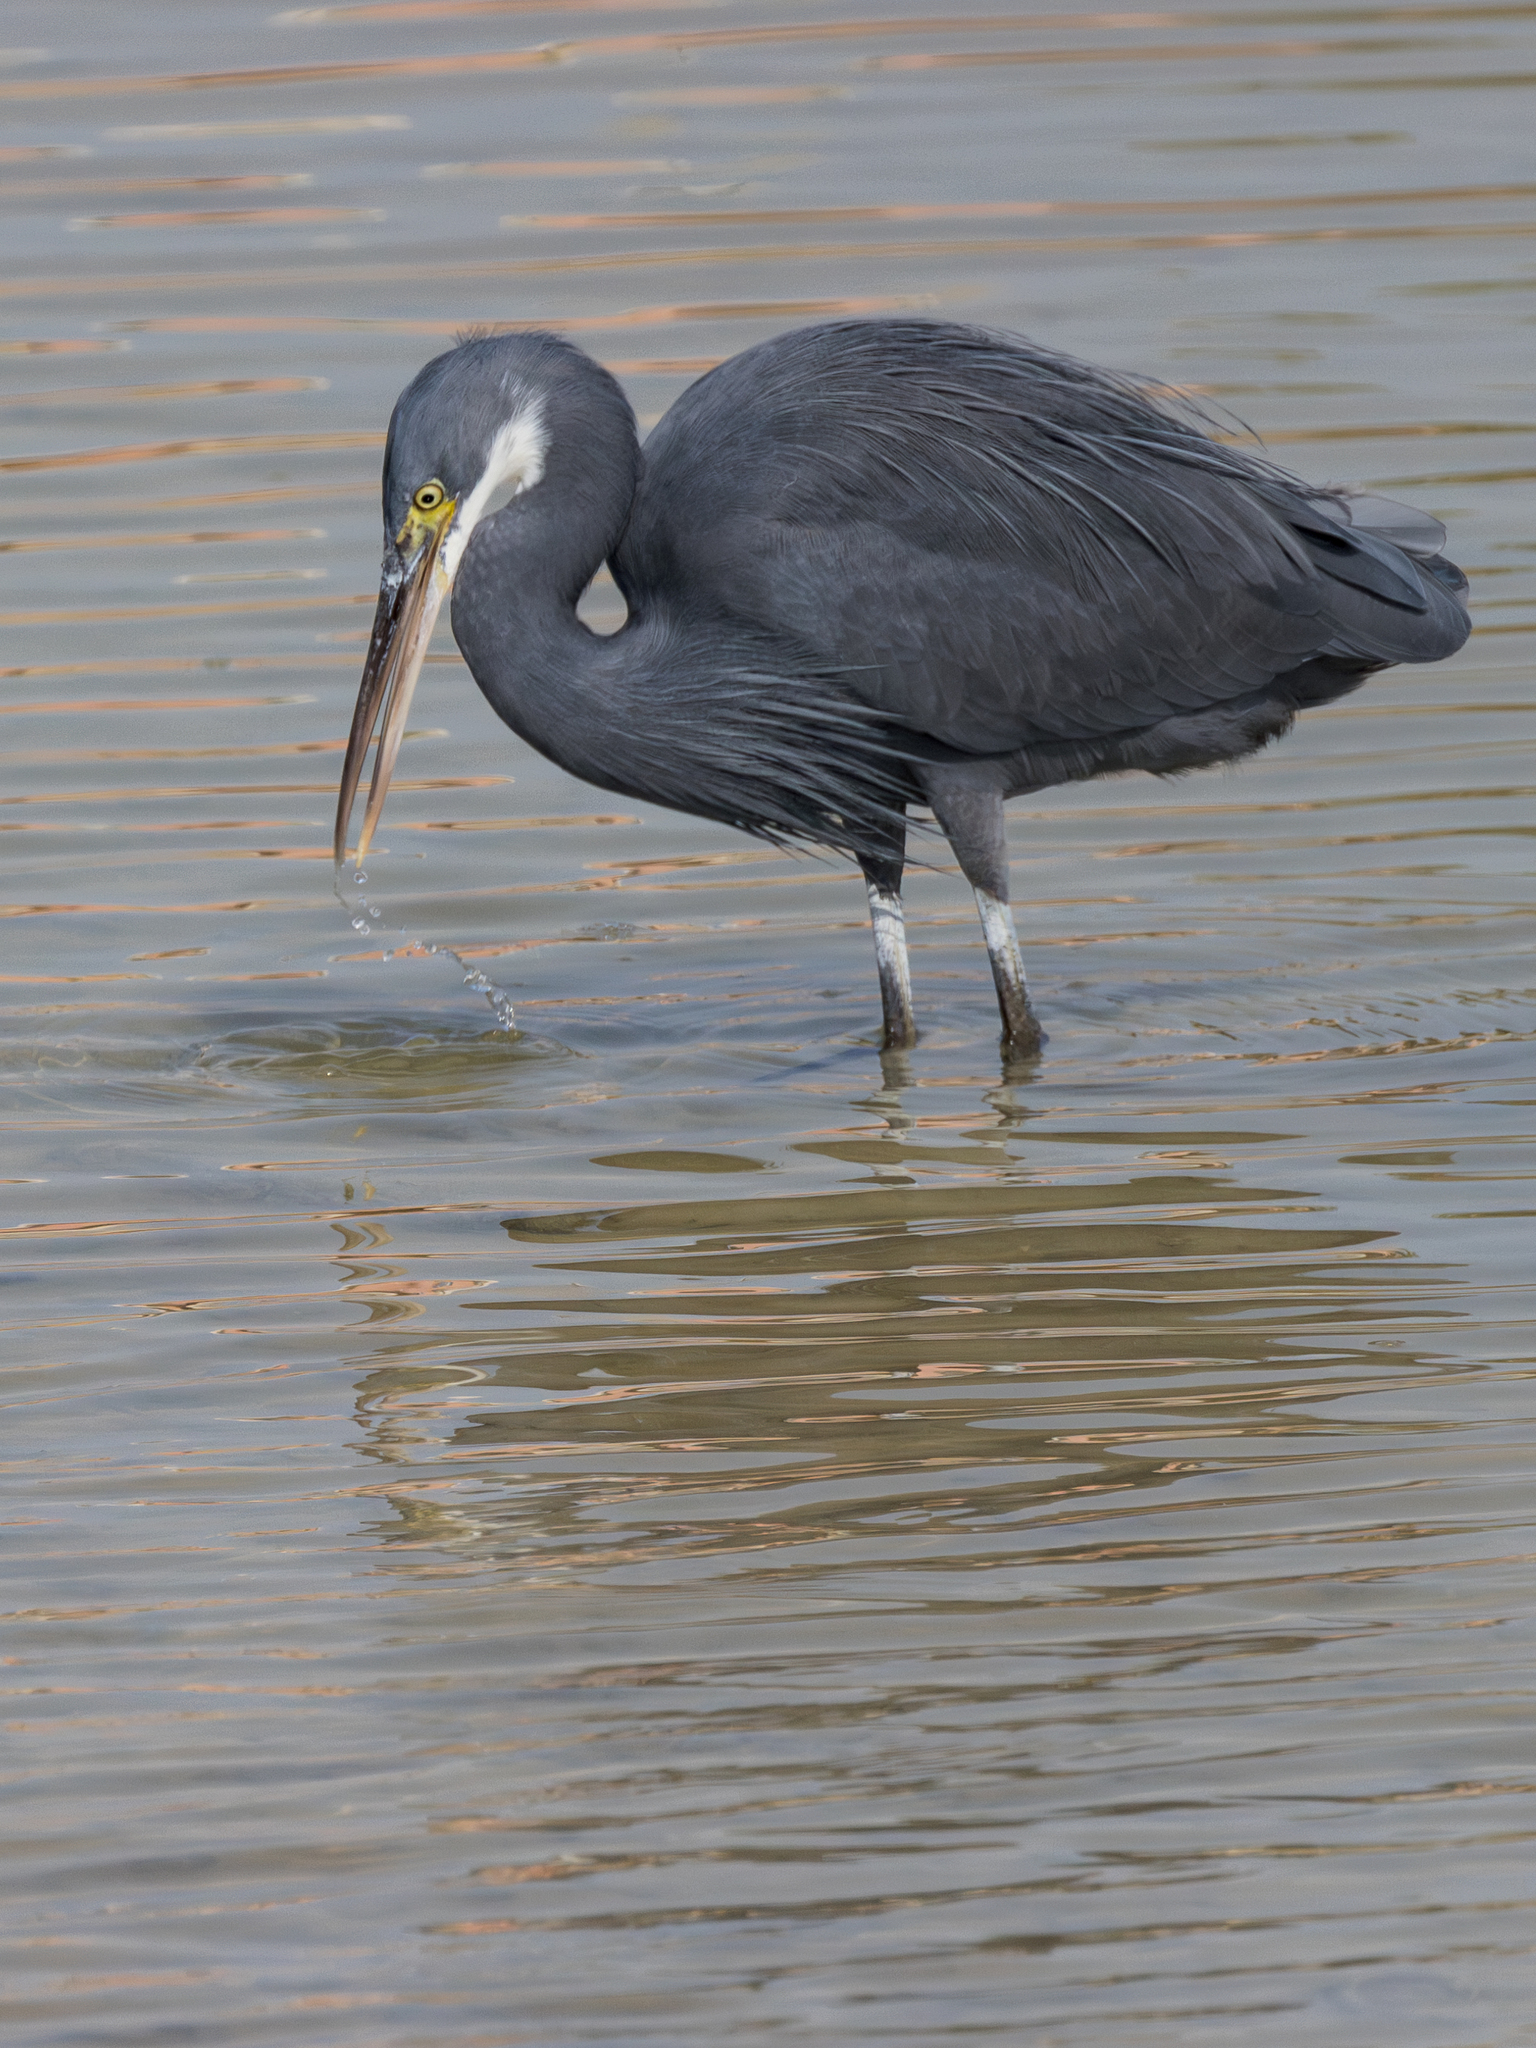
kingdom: Animalia
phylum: Chordata
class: Aves
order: Pelecaniformes
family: Ardeidae
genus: Egretta
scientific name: Egretta gularis
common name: Western reef-heron
